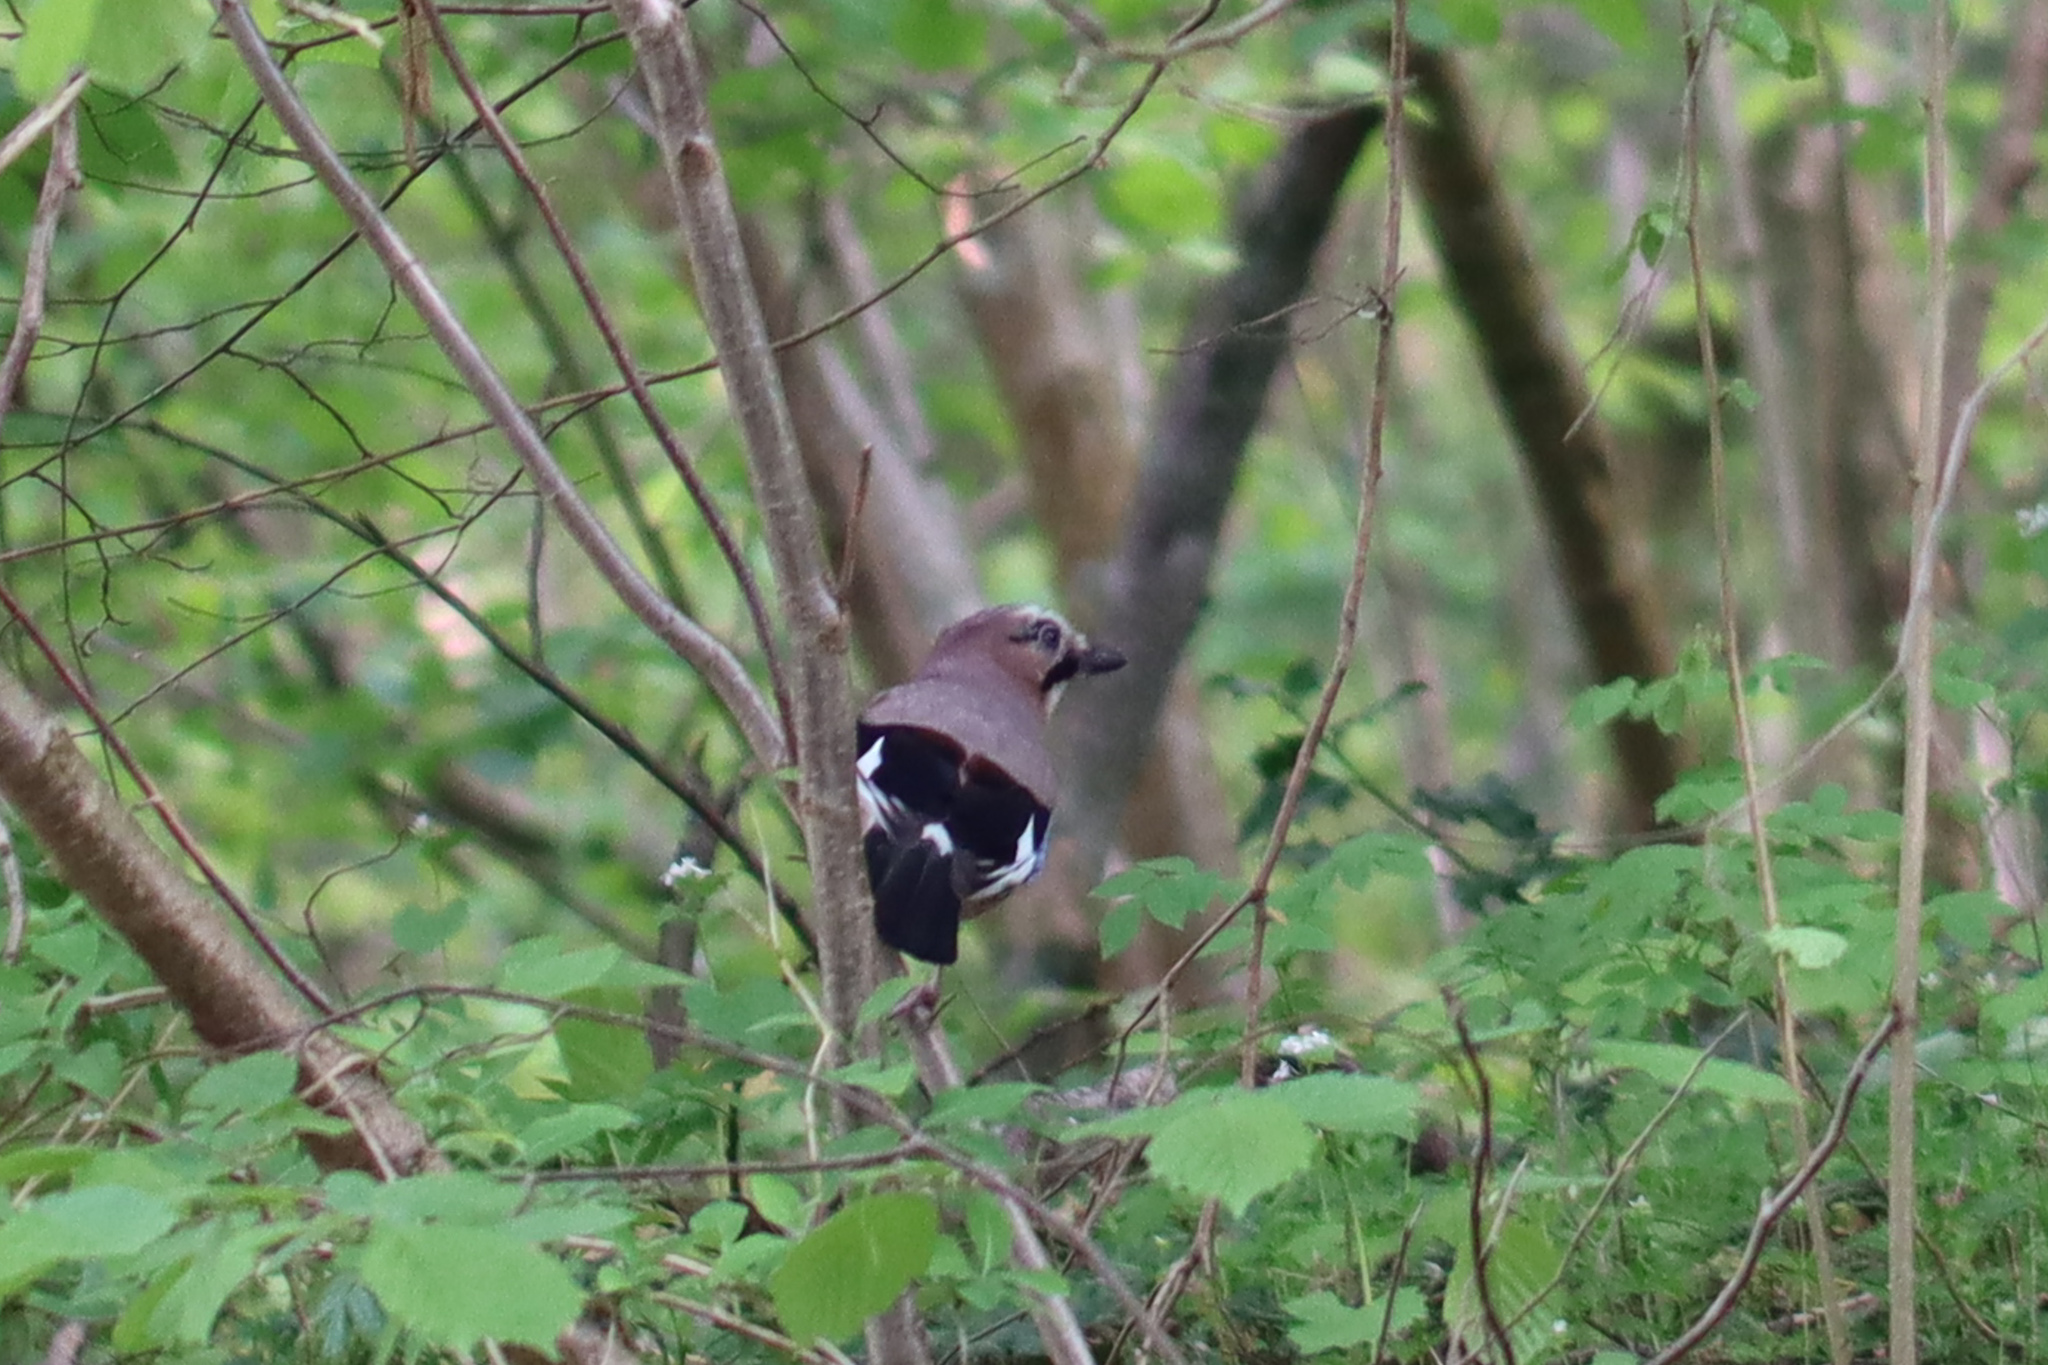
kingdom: Animalia
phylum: Chordata
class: Aves
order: Passeriformes
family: Corvidae
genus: Garrulus
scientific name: Garrulus glandarius
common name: Eurasian jay
